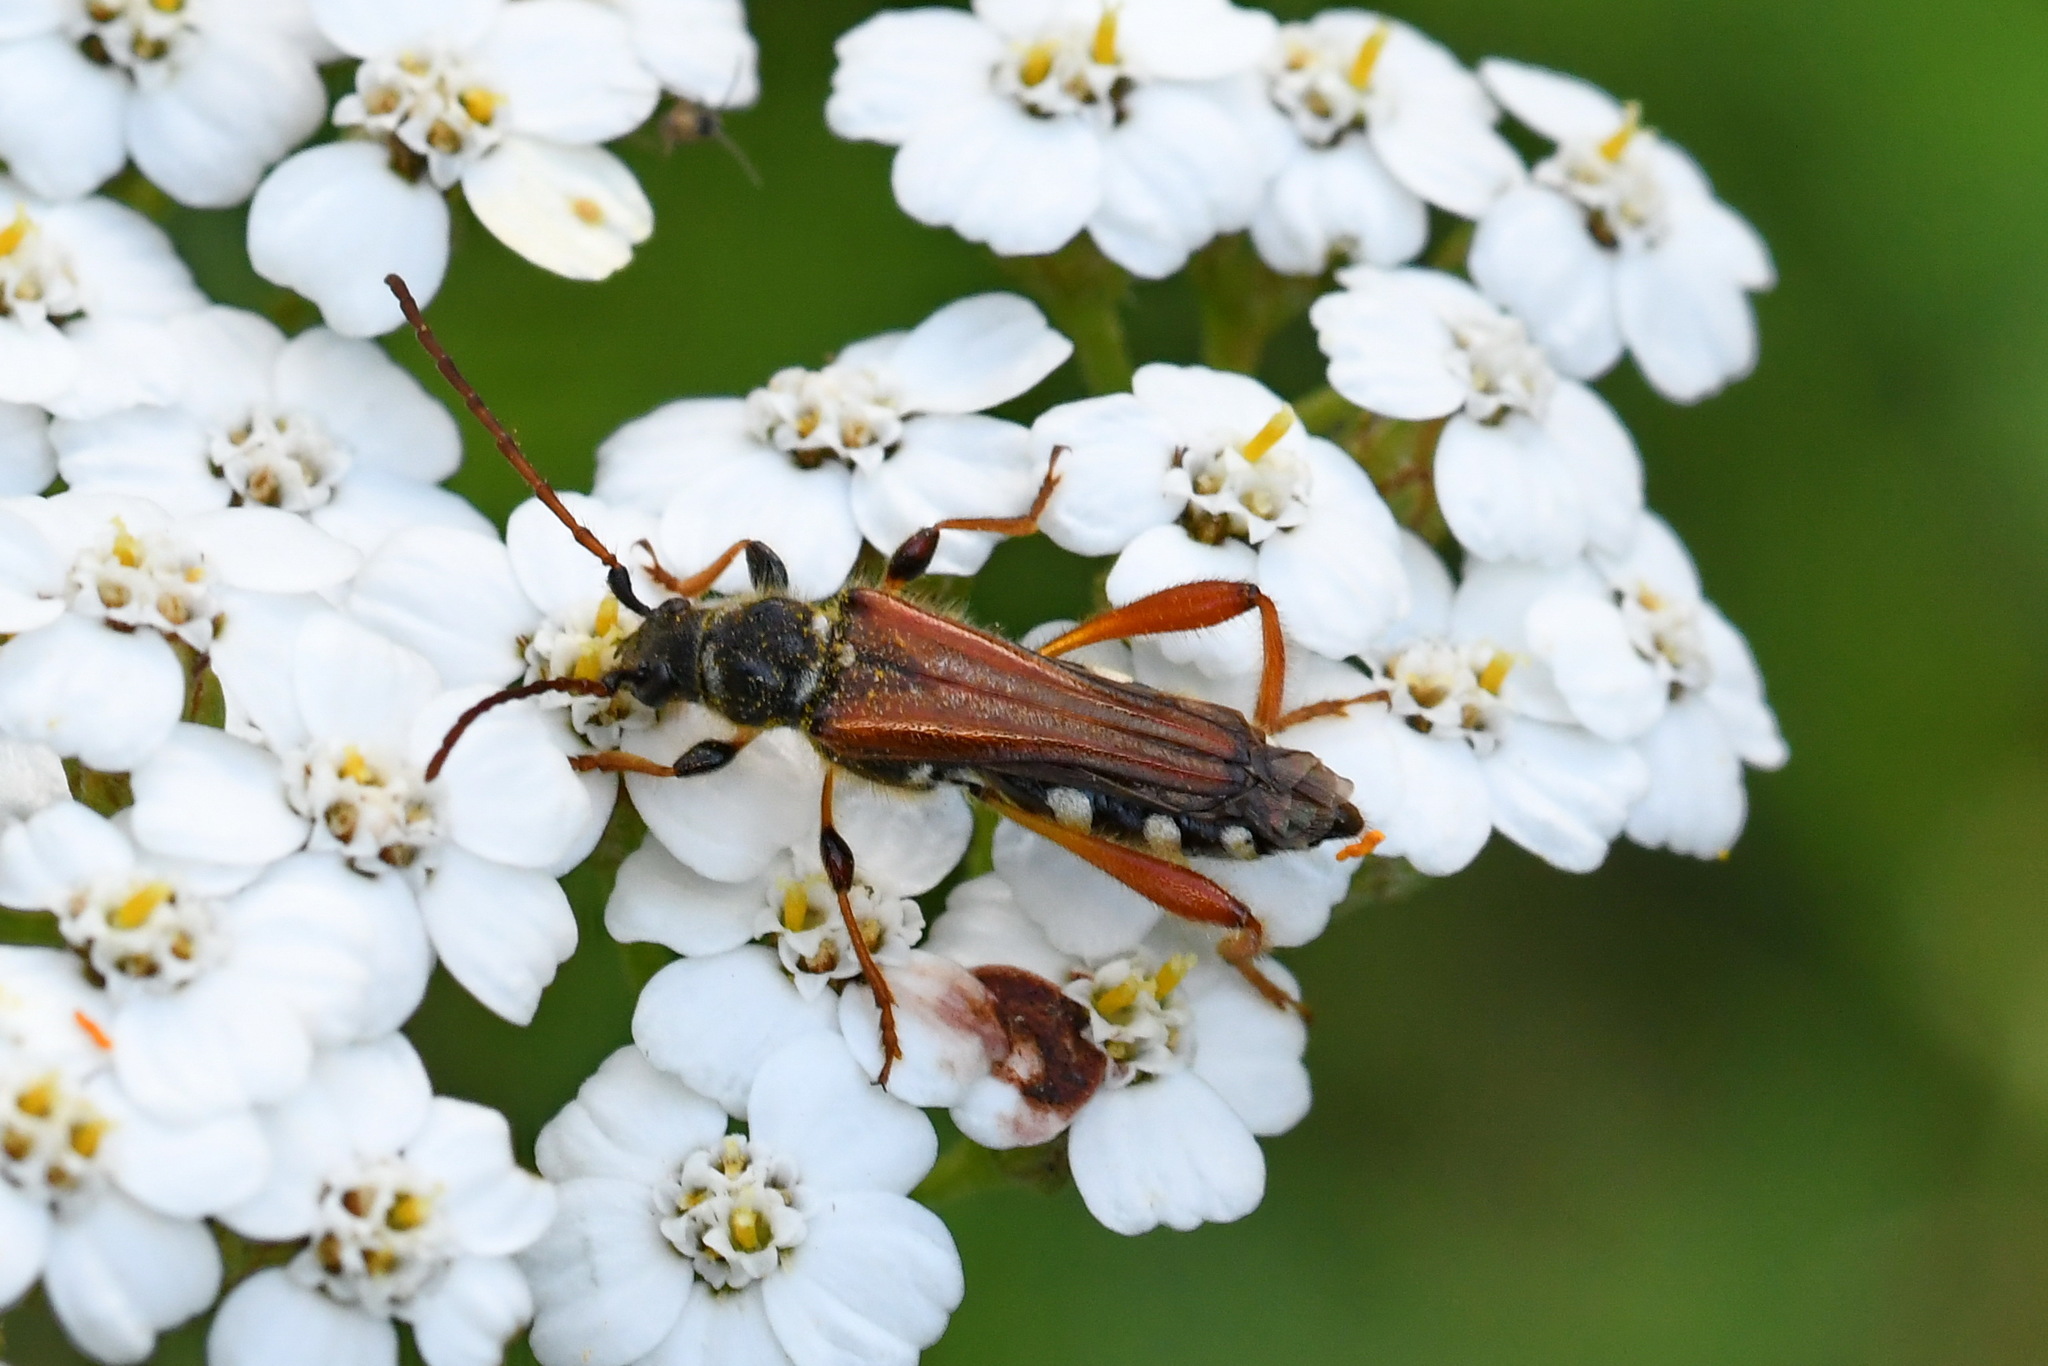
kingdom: Animalia
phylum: Arthropoda
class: Insecta
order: Coleoptera
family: Cerambycidae
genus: Stenopterus
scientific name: Stenopterus rufus
